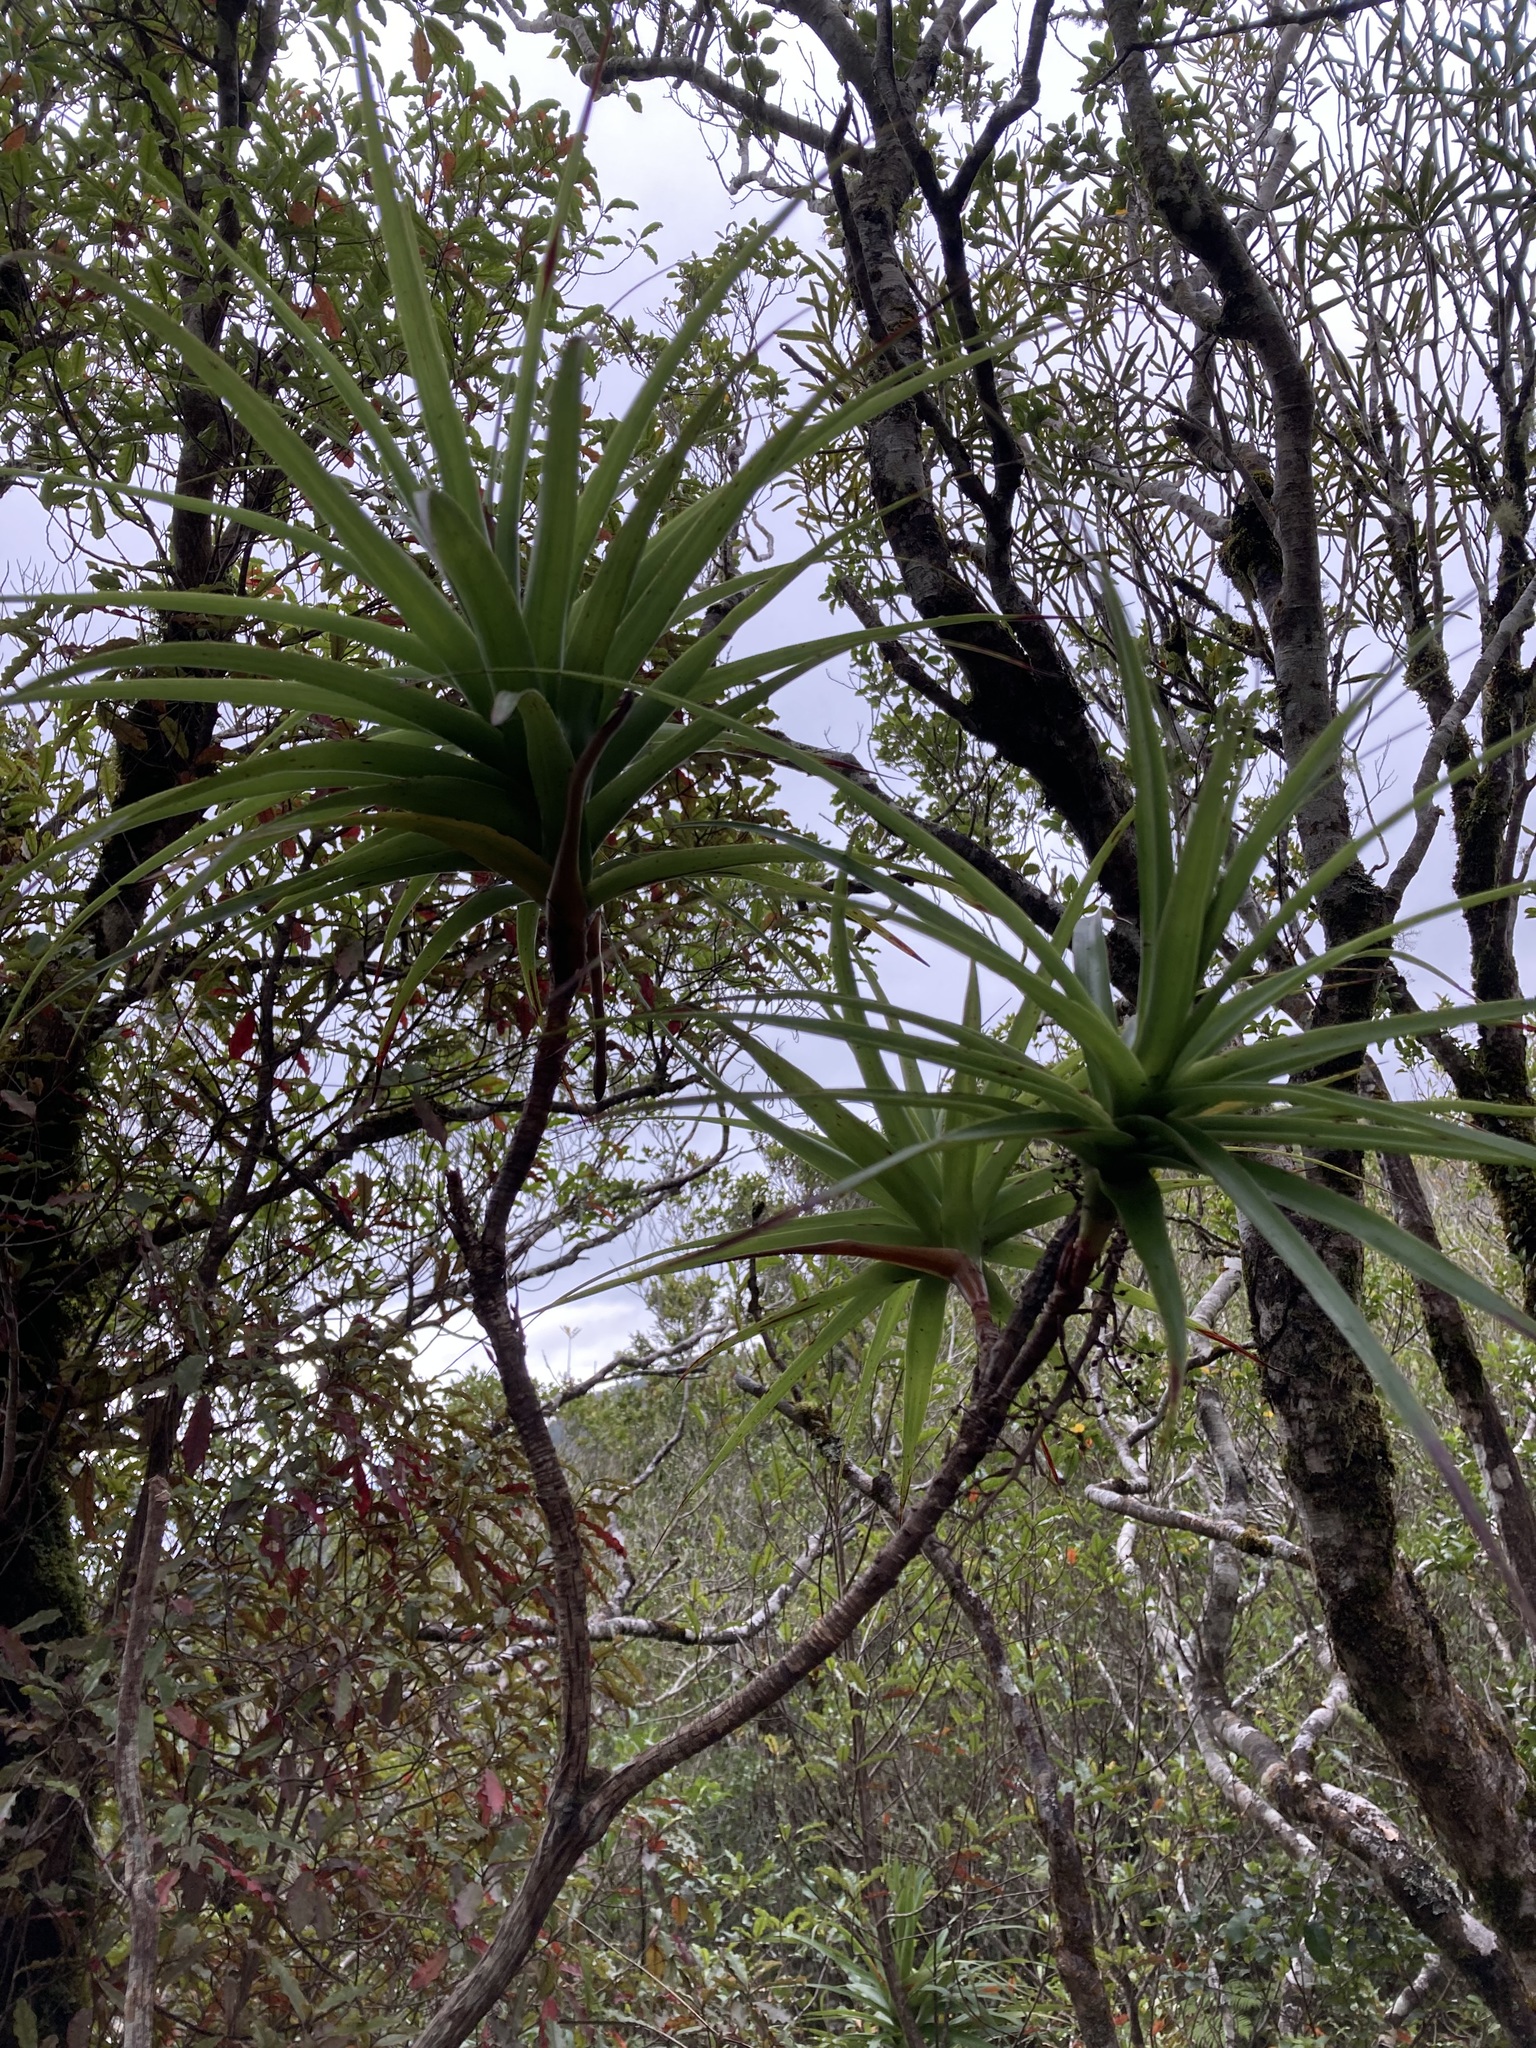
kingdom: Plantae
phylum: Tracheophyta
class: Magnoliopsida
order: Ericales
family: Ericaceae
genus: Dracophyllum
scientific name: Dracophyllum latifolium
